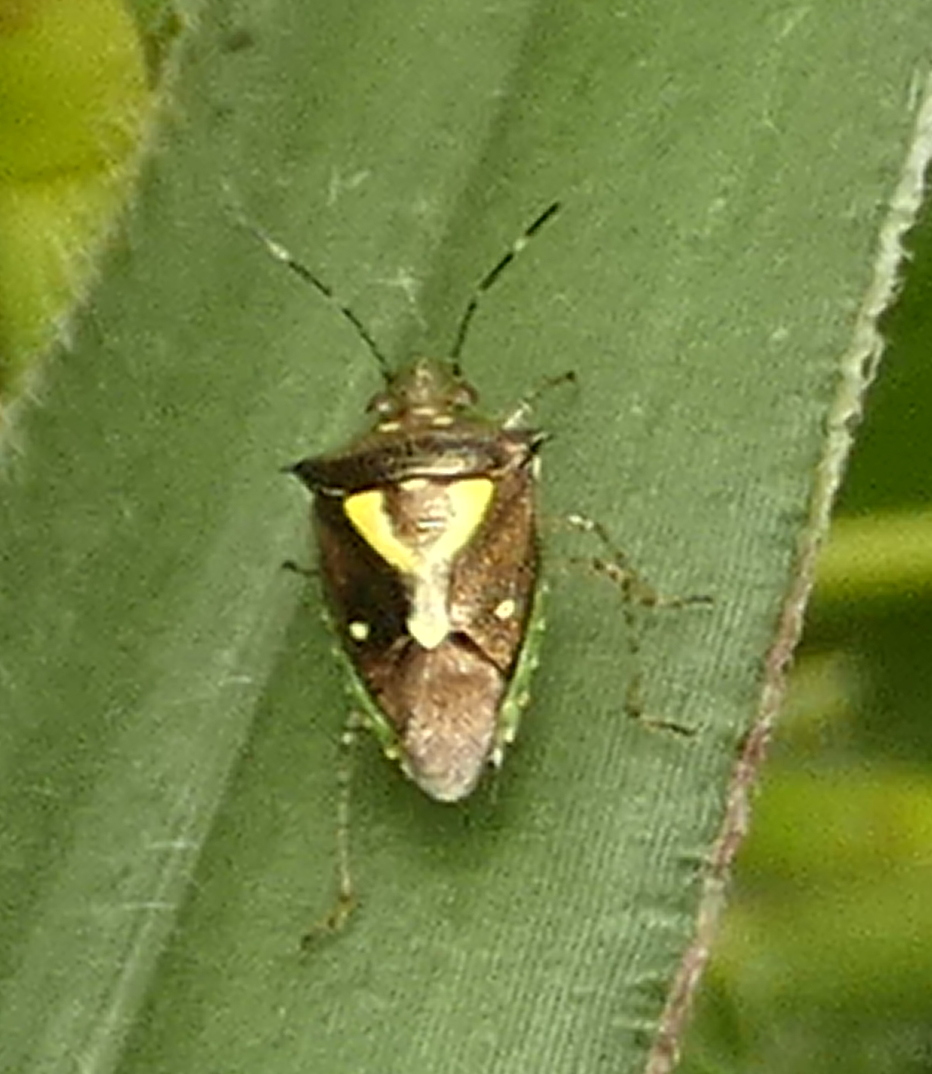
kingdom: Animalia
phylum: Arthropoda
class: Insecta
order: Hemiptera
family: Pentatomidae
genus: Mormidea
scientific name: Mormidea ypsilon
